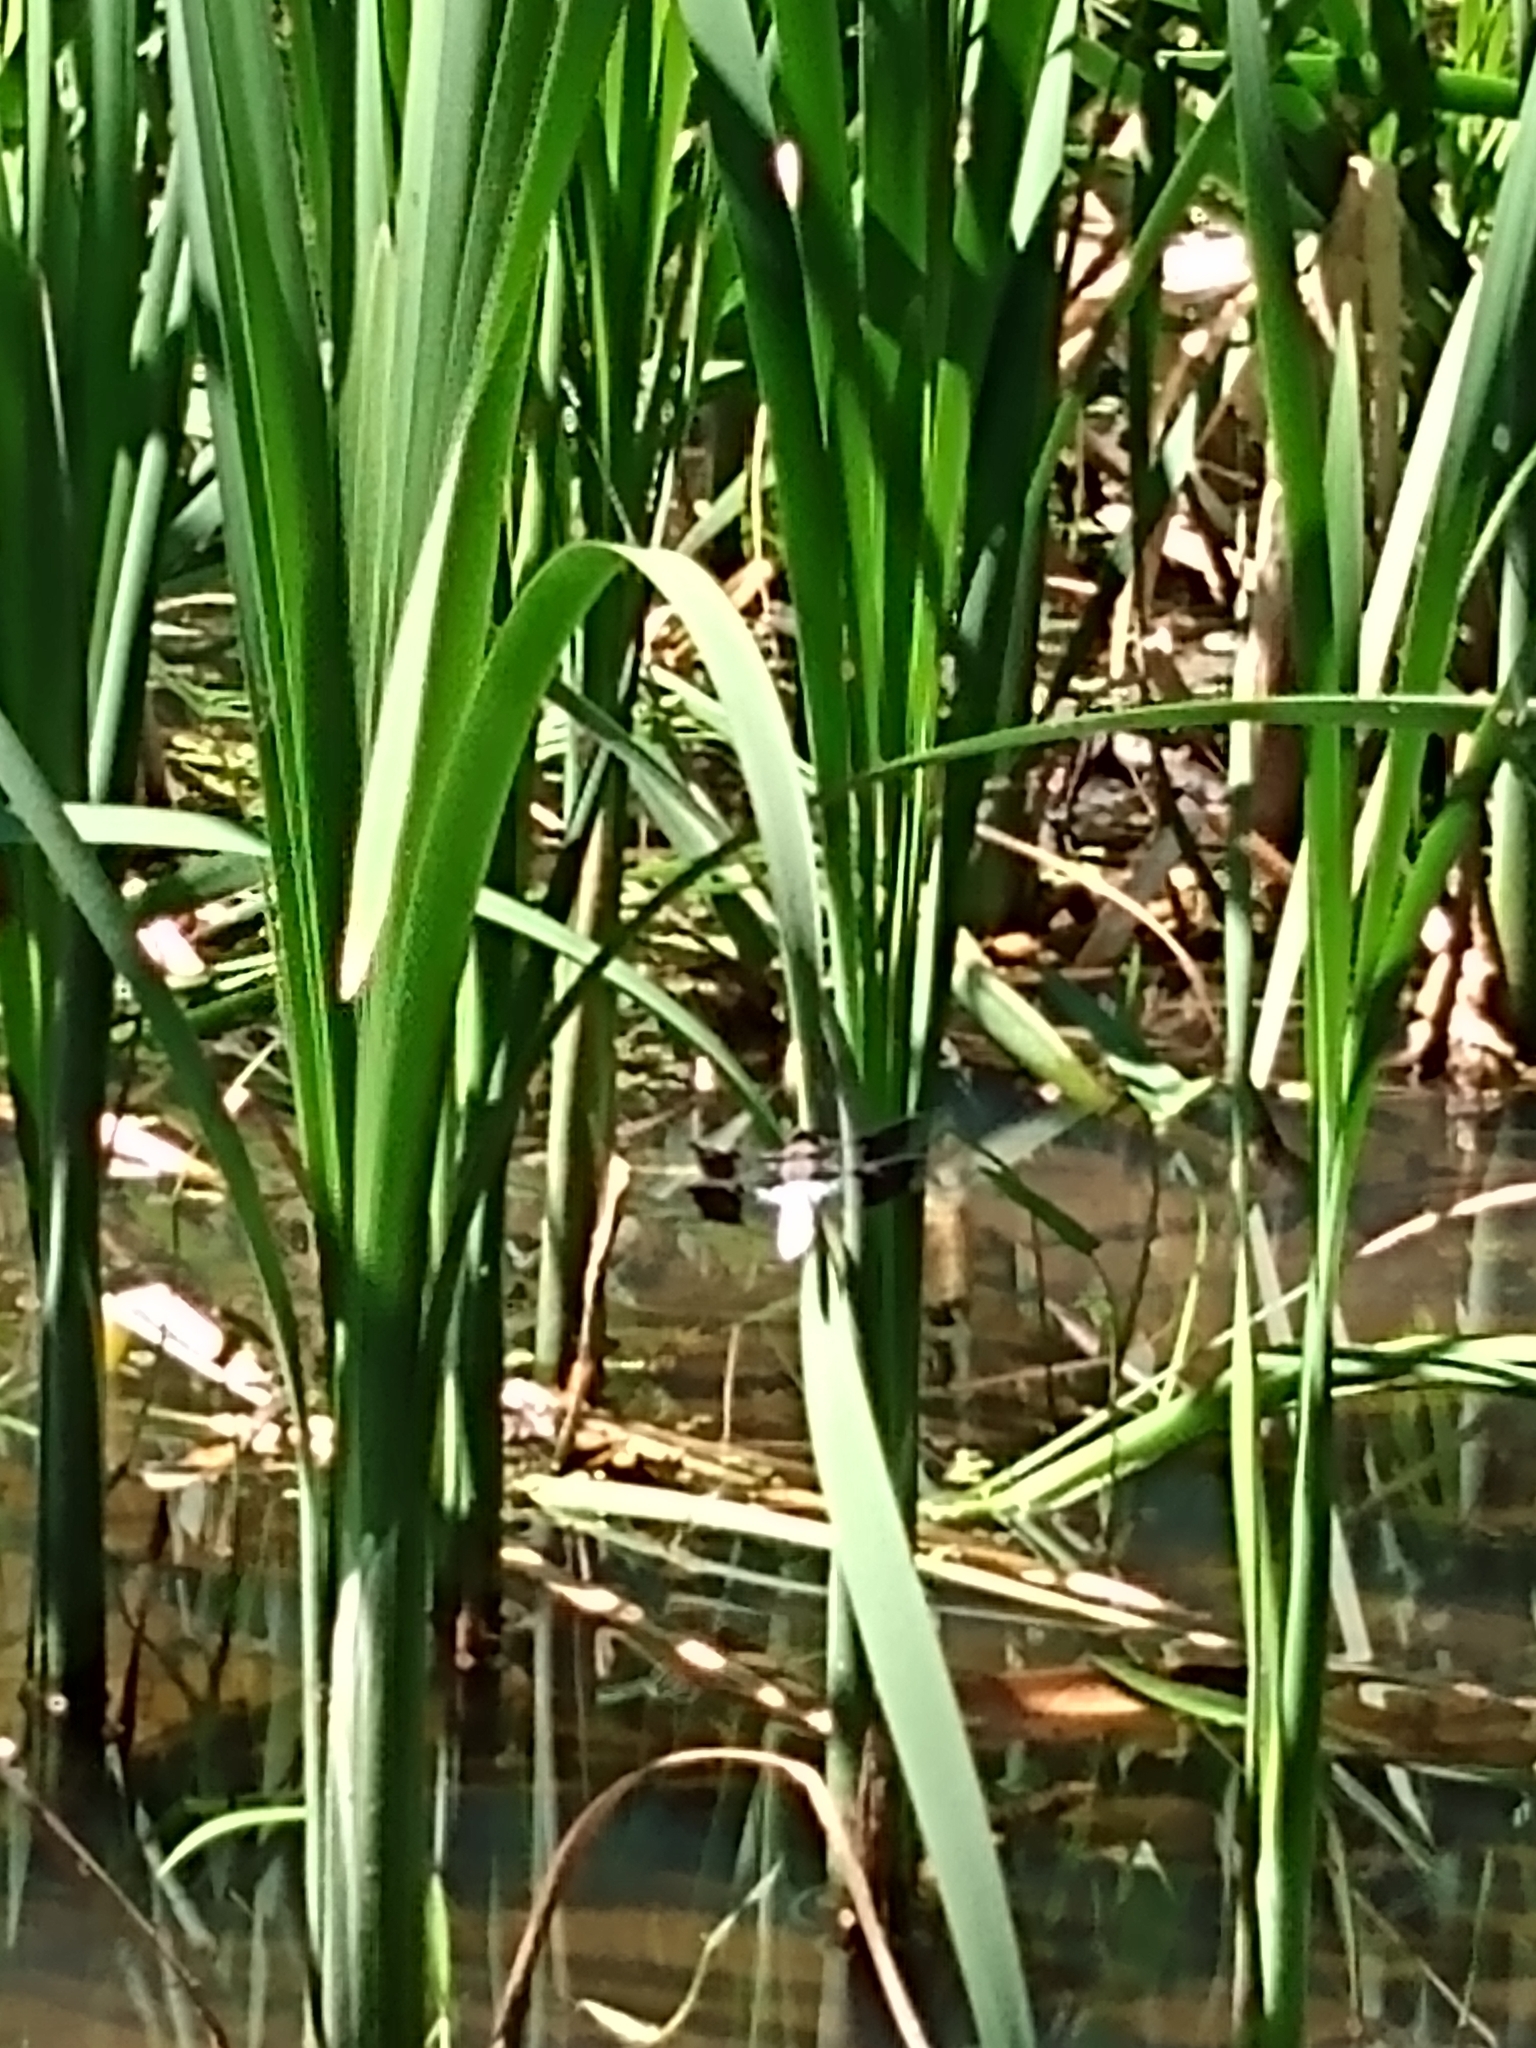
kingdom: Animalia
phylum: Arthropoda
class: Insecta
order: Odonata
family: Libellulidae
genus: Plathemis
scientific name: Plathemis lydia
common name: Common whitetail
